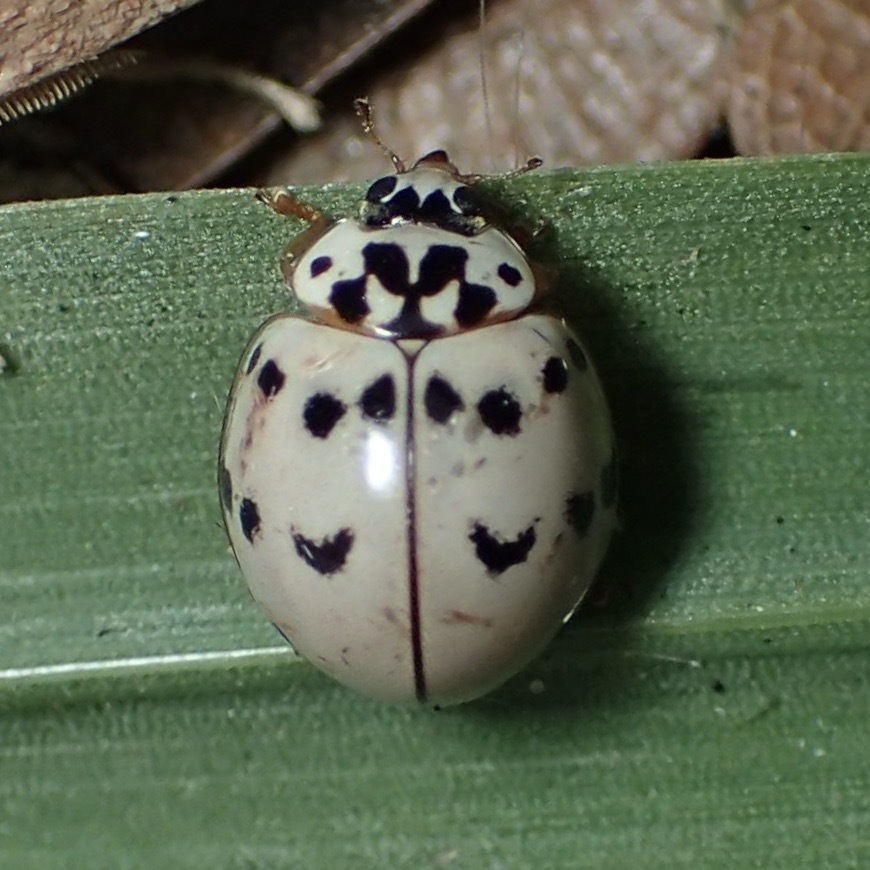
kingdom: Animalia
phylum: Arthropoda
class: Insecta
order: Coleoptera
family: Coccinellidae
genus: Olla
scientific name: Olla v-nigrum
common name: Ashy gray lady beetle
